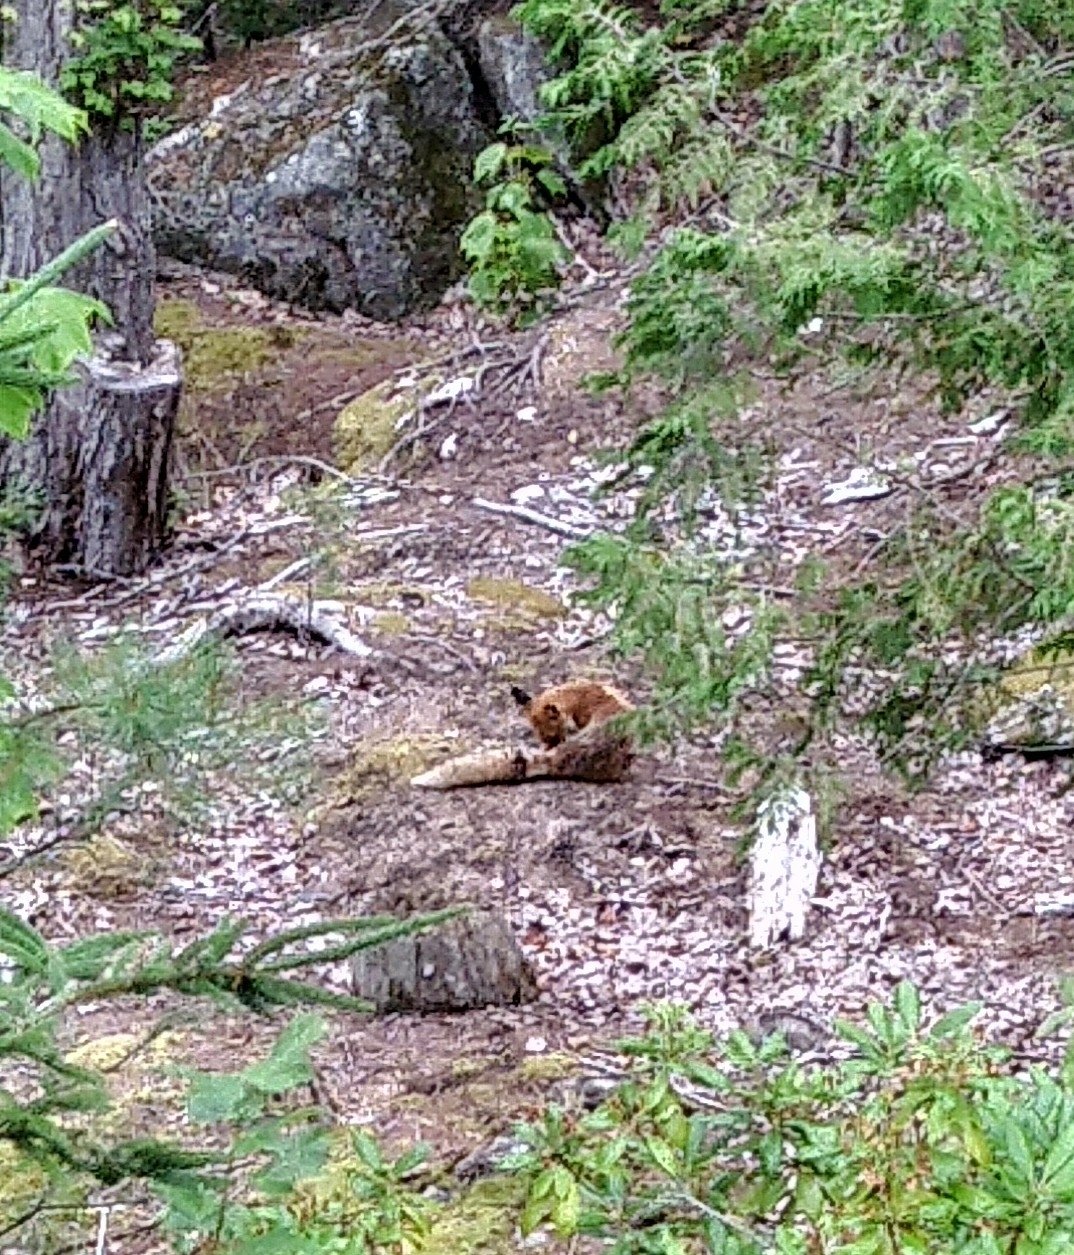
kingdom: Animalia
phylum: Chordata
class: Mammalia
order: Carnivora
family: Canidae
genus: Vulpes
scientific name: Vulpes vulpes
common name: Red fox
